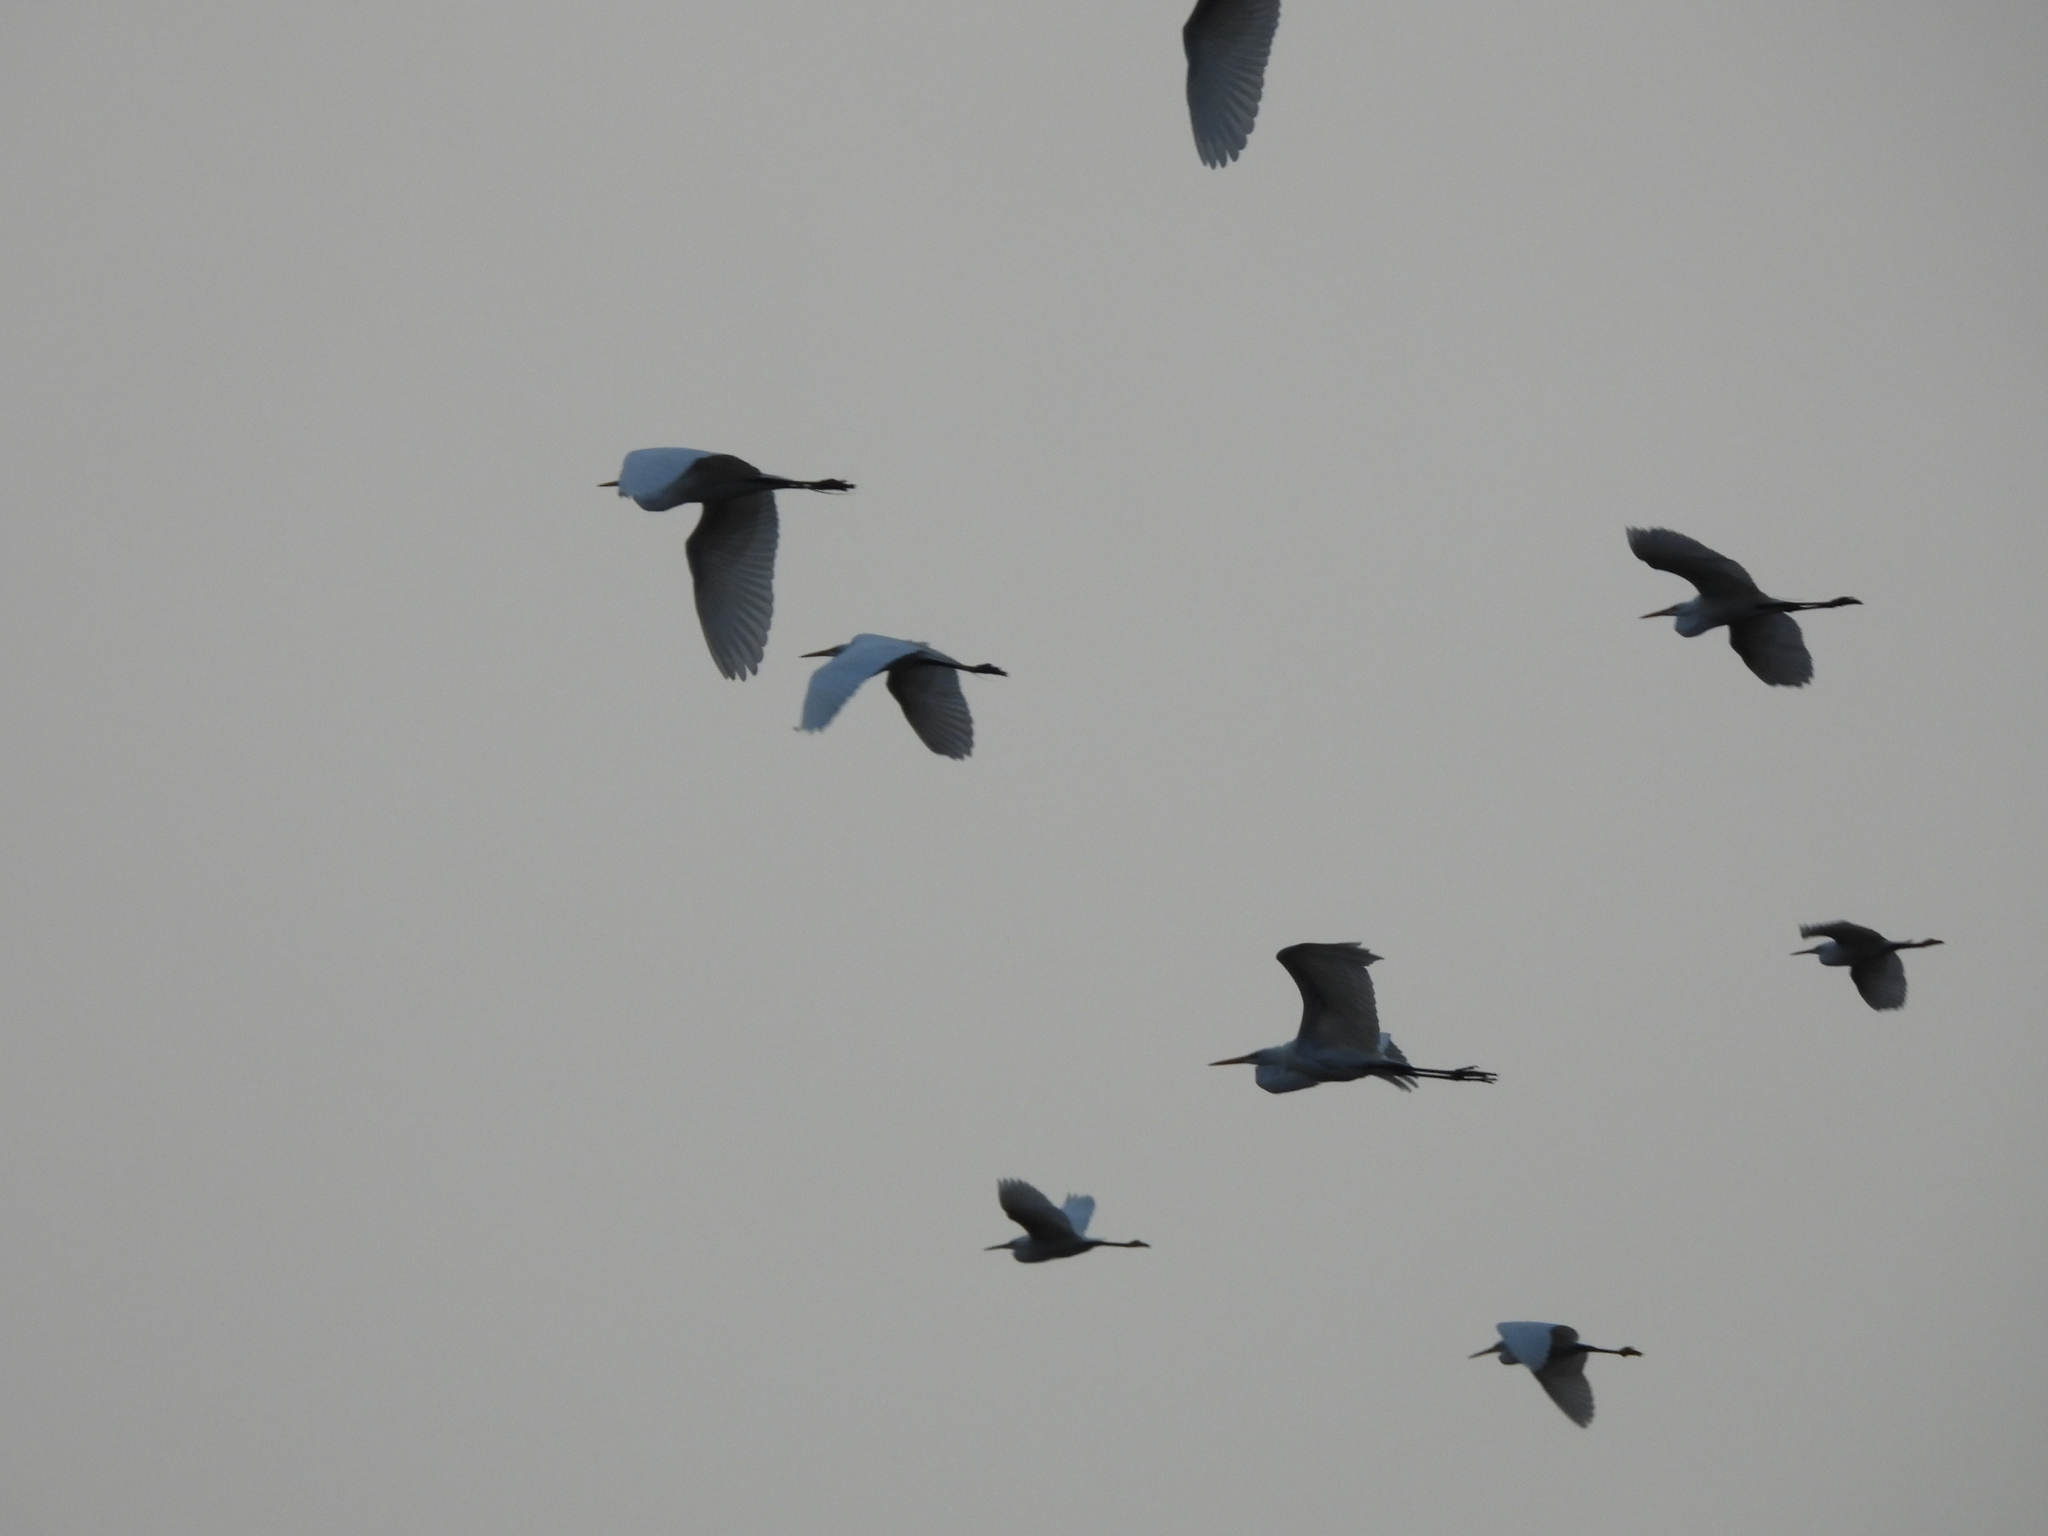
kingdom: Animalia
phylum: Chordata
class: Aves
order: Pelecaniformes
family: Ardeidae
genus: Ardea
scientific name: Ardea alba
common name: Great egret
